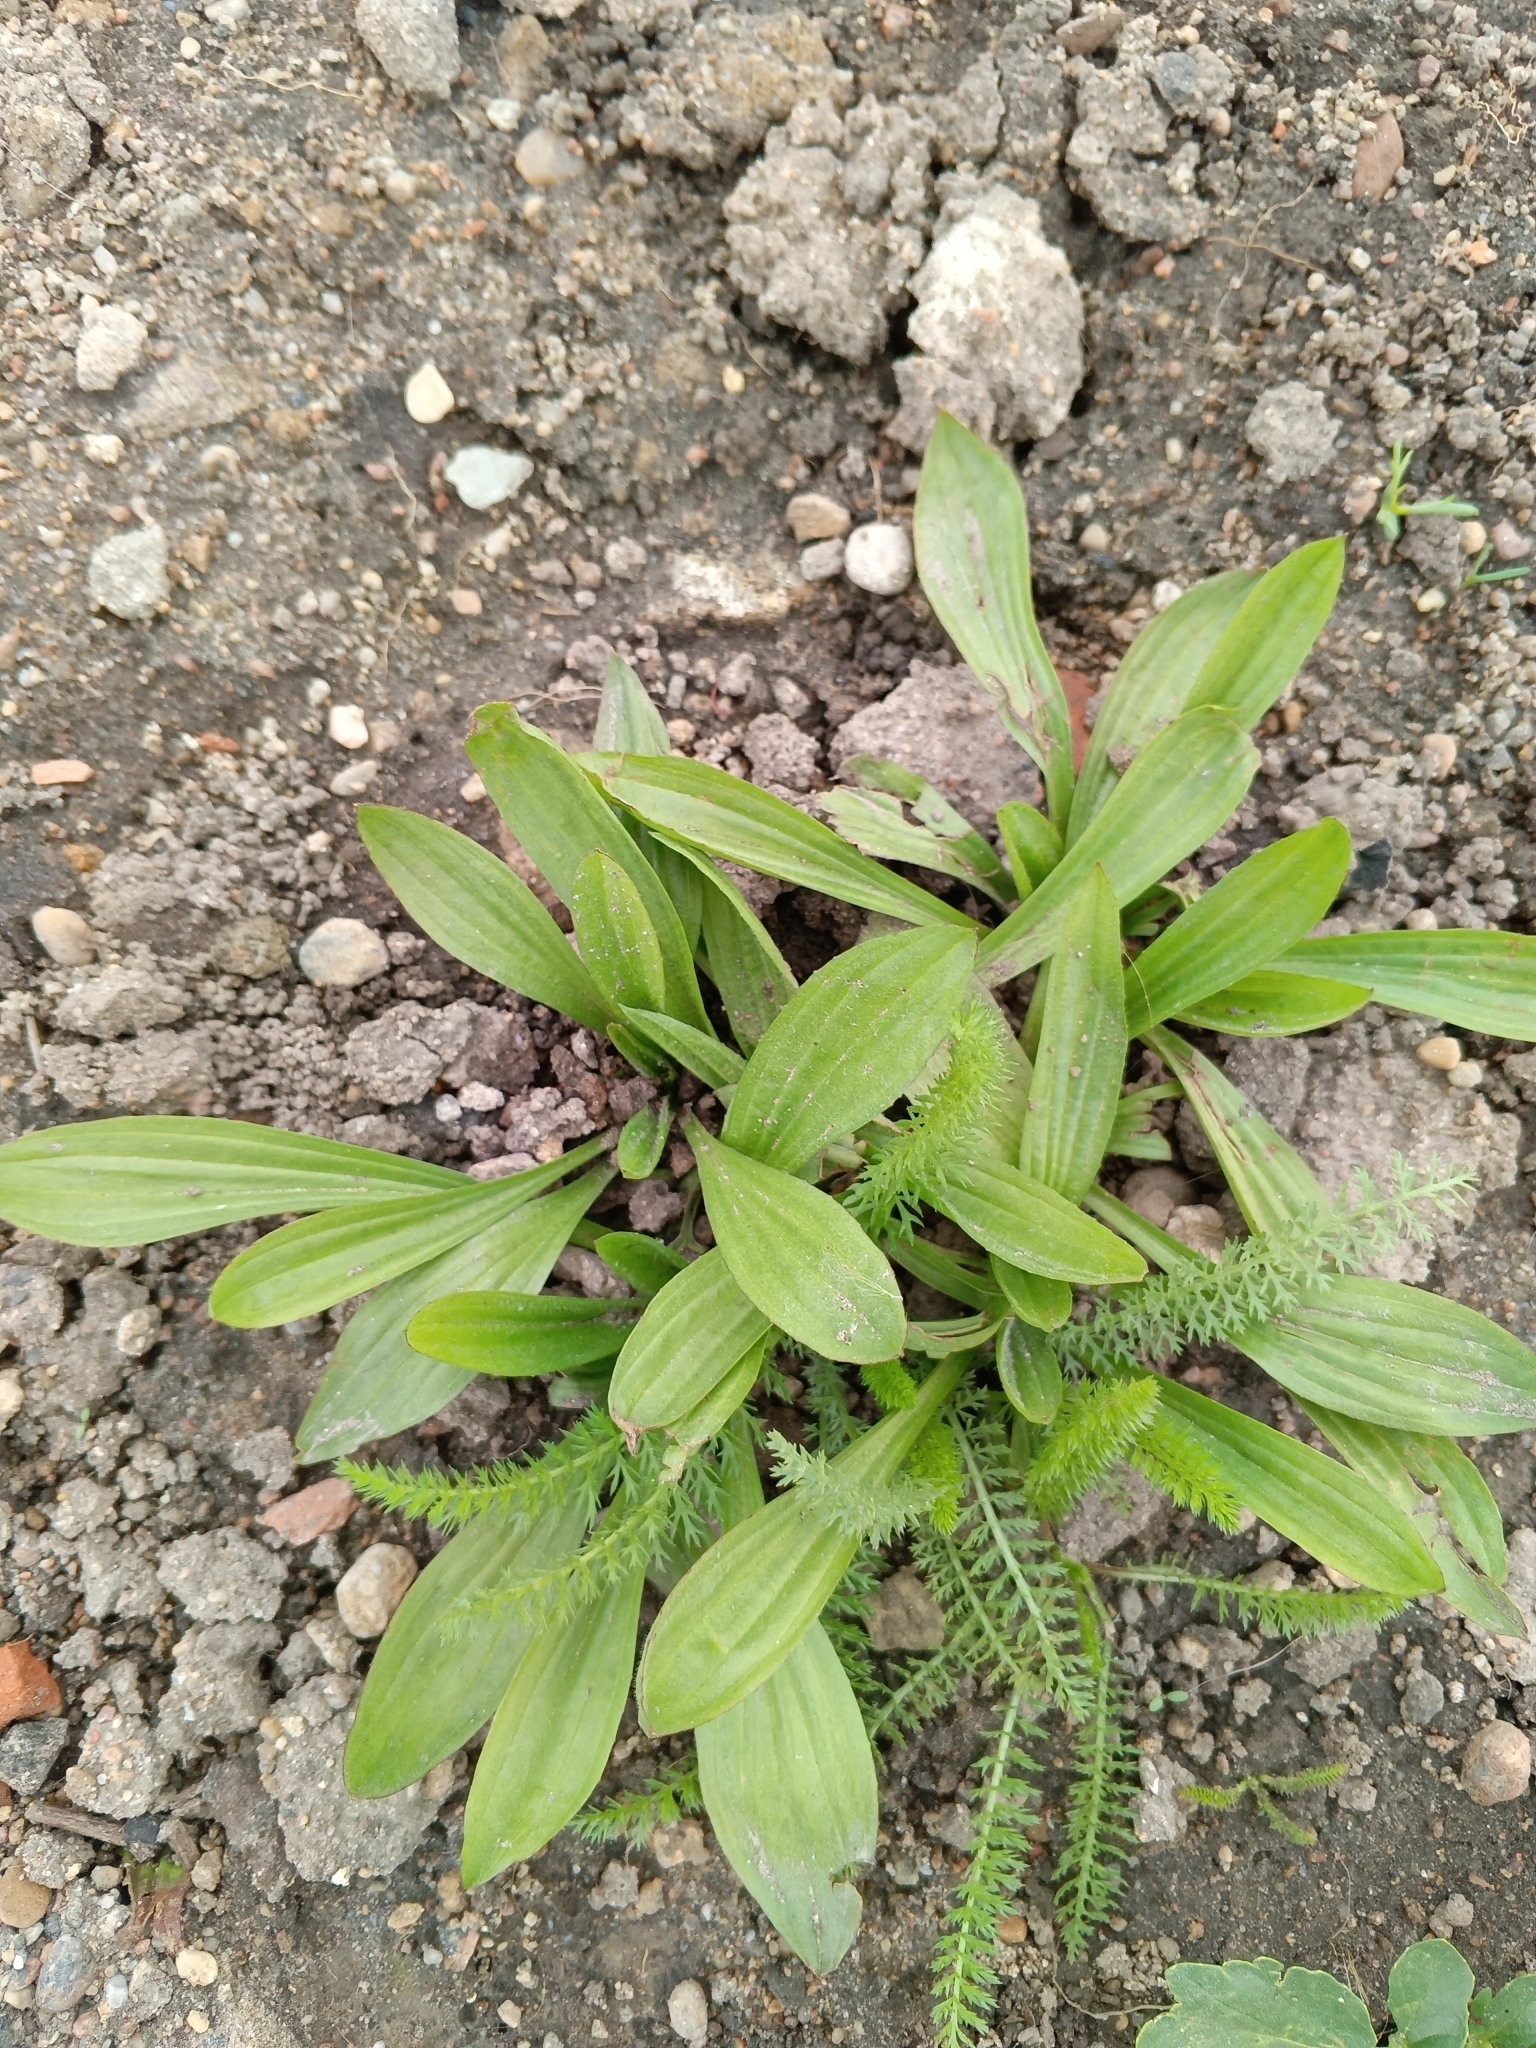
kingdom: Plantae
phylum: Tracheophyta
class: Magnoliopsida
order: Lamiales
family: Plantaginaceae
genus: Plantago
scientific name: Plantago lanceolata
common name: Ribwort plantain
